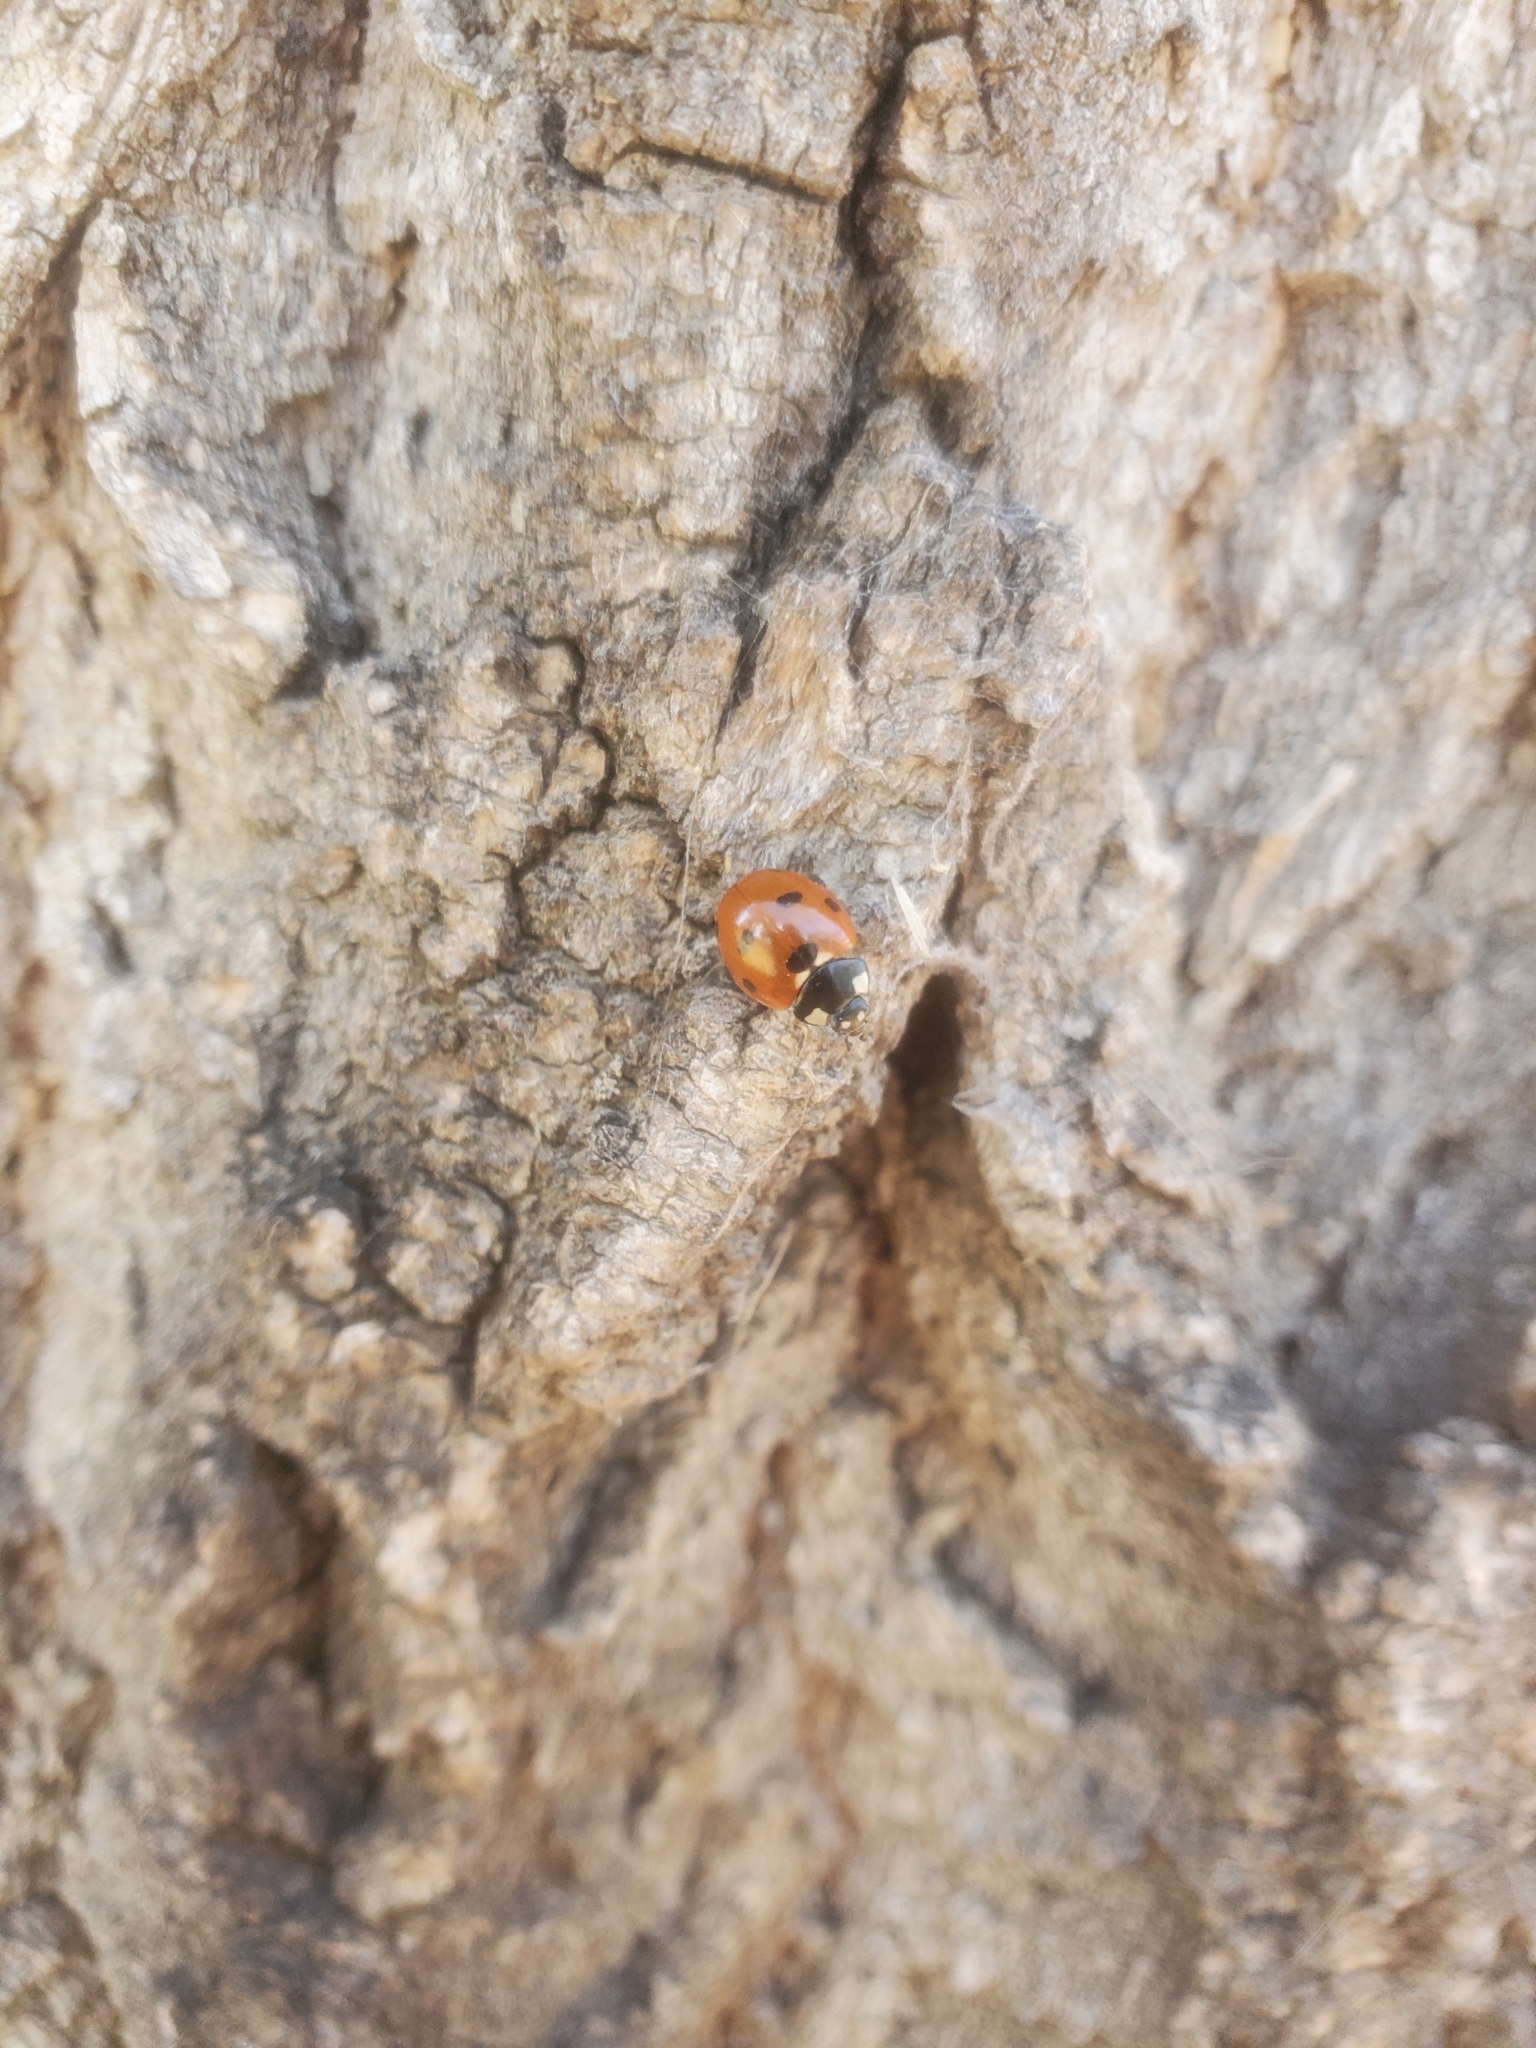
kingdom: Animalia
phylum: Arthropoda
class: Insecta
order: Coleoptera
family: Coccinellidae
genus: Coccinella
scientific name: Coccinella septempunctata
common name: Sevenspotted lady beetle
